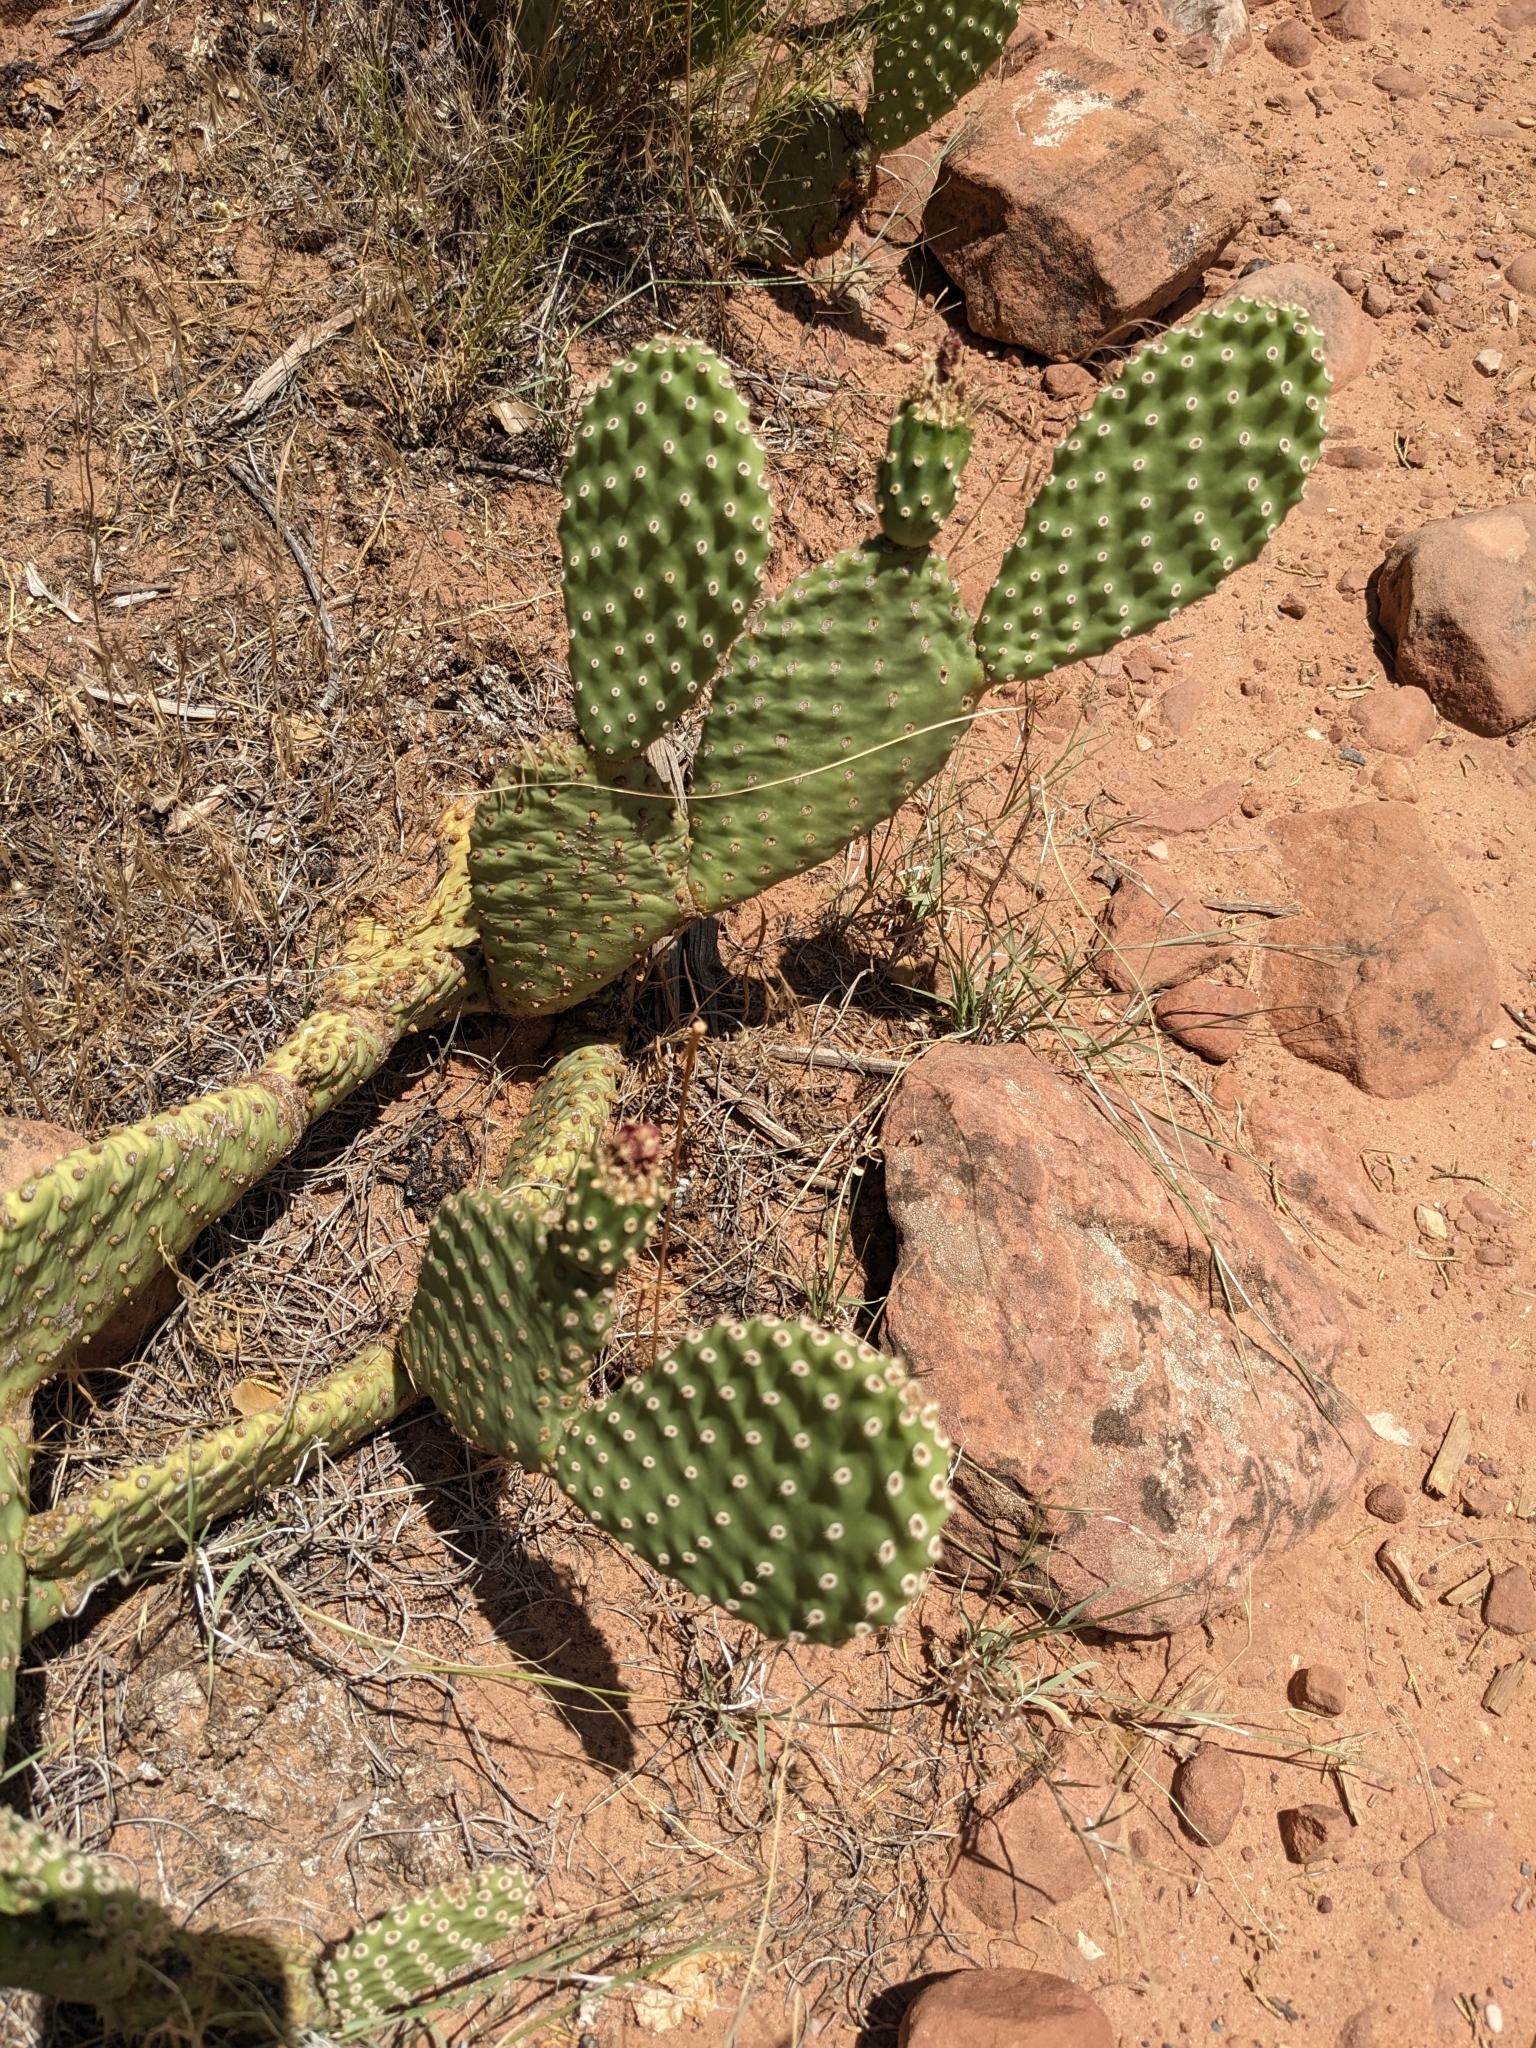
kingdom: Plantae
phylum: Tracheophyta
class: Magnoliopsida
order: Caryophyllales
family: Cactaceae
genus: Opuntia
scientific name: Opuntia aurea
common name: Golden prickly-pear
